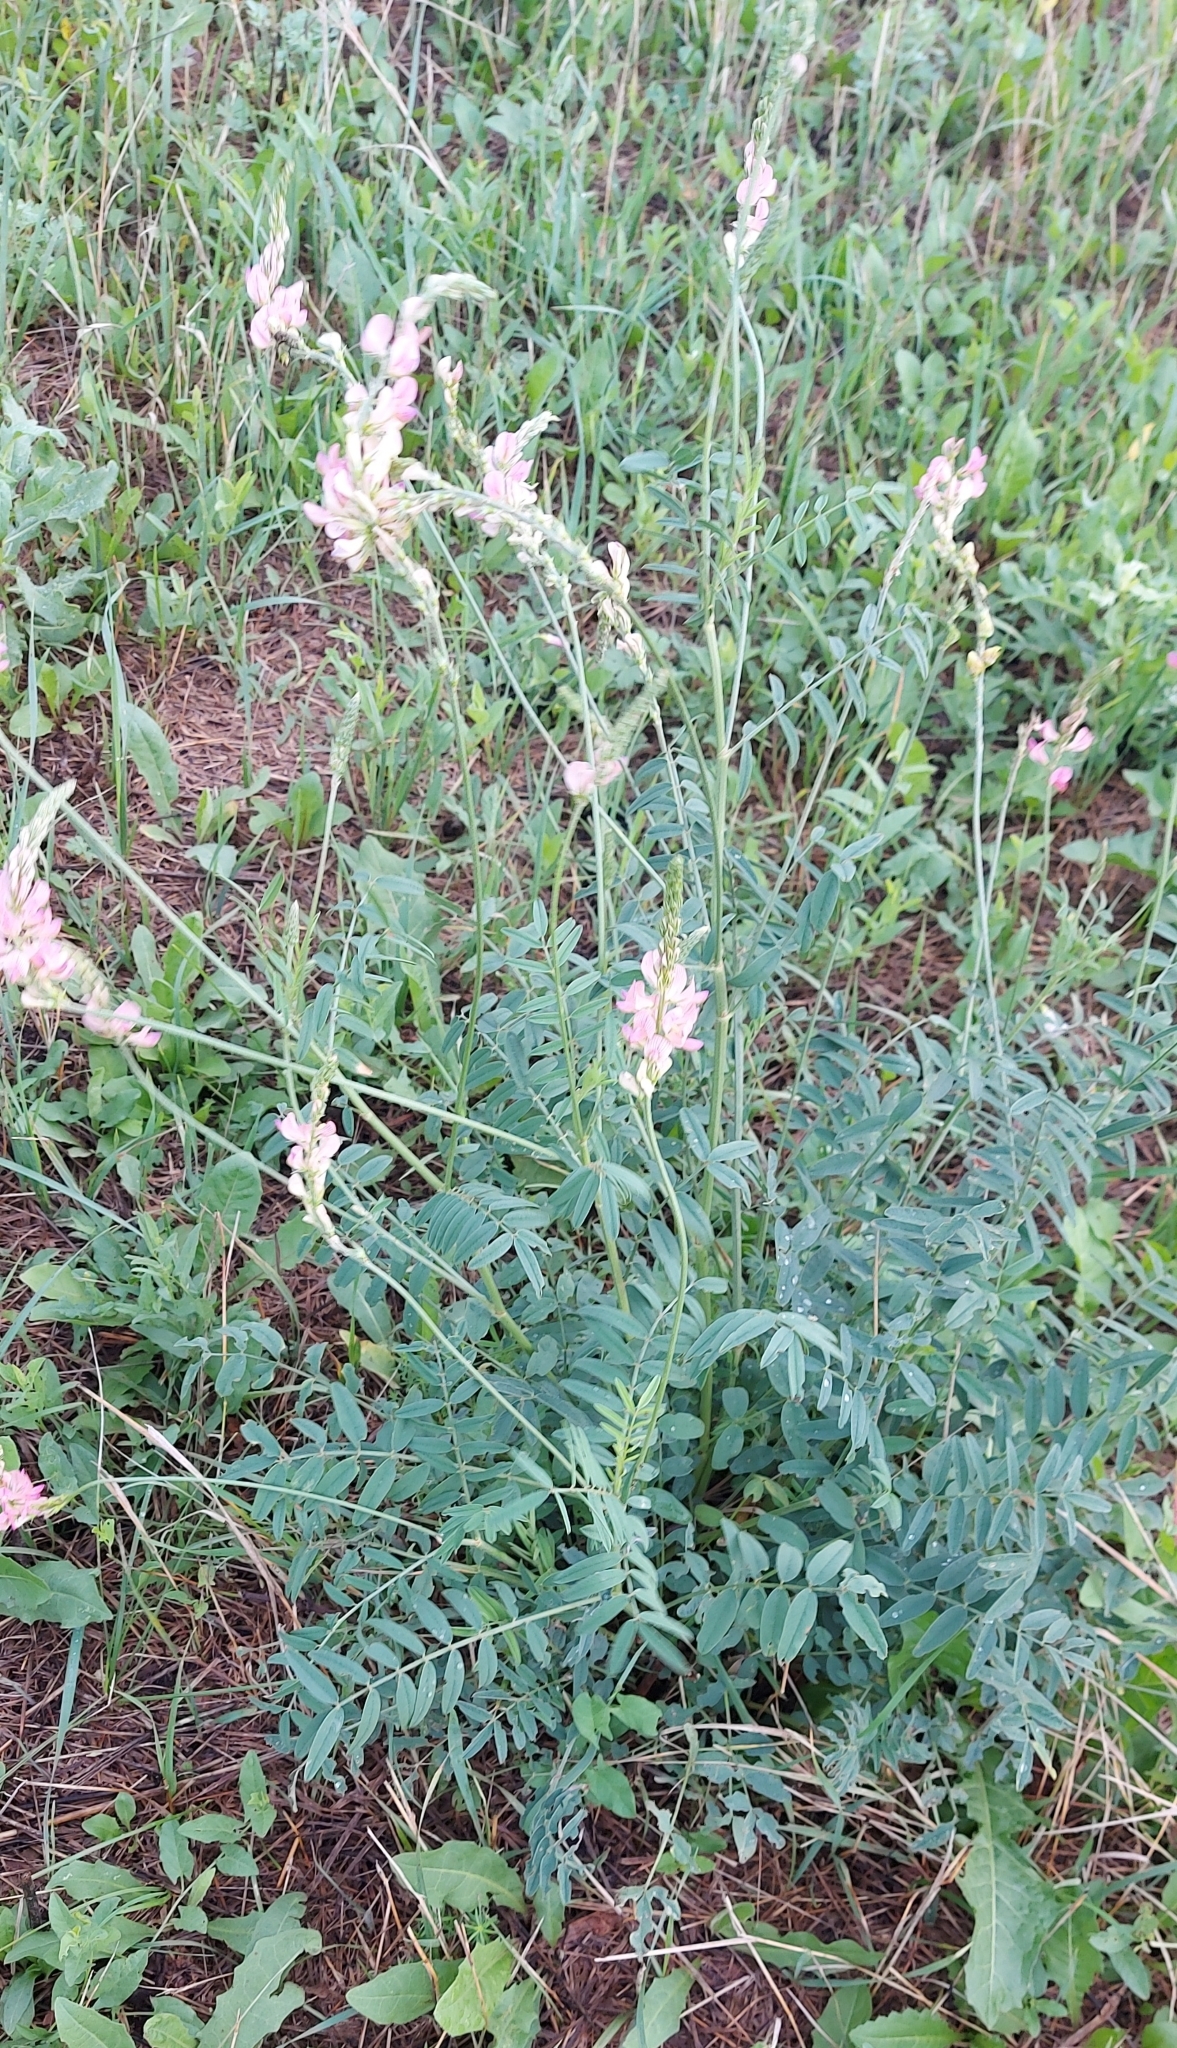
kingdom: Plantae
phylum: Tracheophyta
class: Magnoliopsida
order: Fabales
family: Fabaceae
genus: Onobrychis
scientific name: Onobrychis viciifolia
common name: Sainfoin
